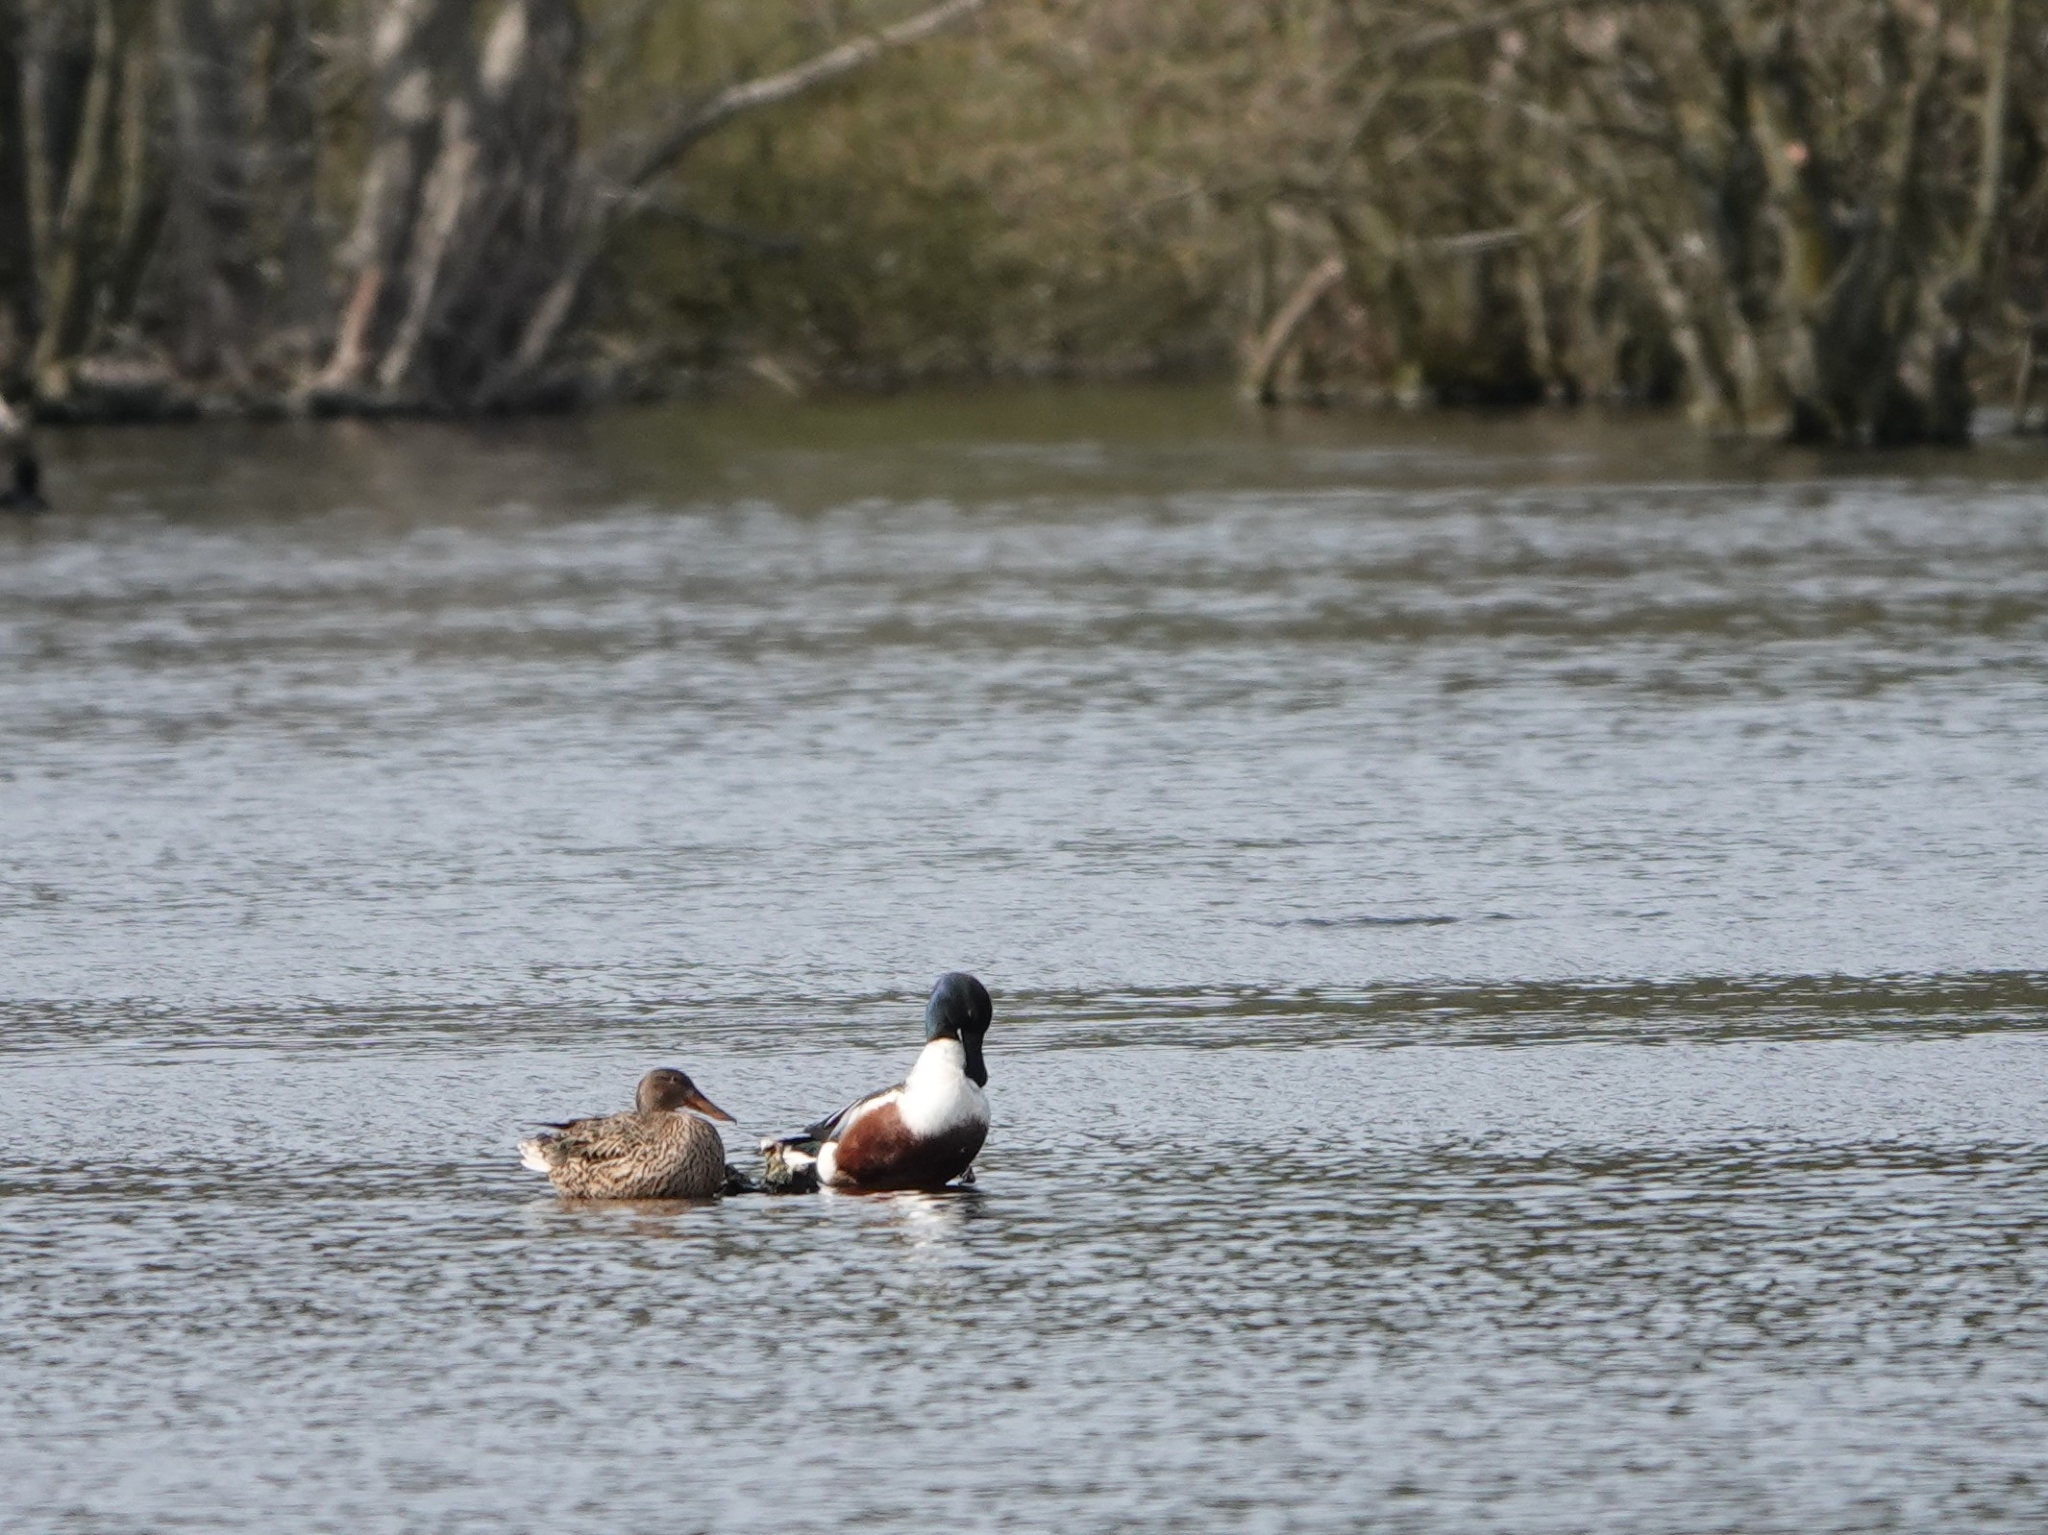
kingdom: Animalia
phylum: Chordata
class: Aves
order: Anseriformes
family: Anatidae
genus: Spatula
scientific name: Spatula clypeata
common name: Northern shoveler
